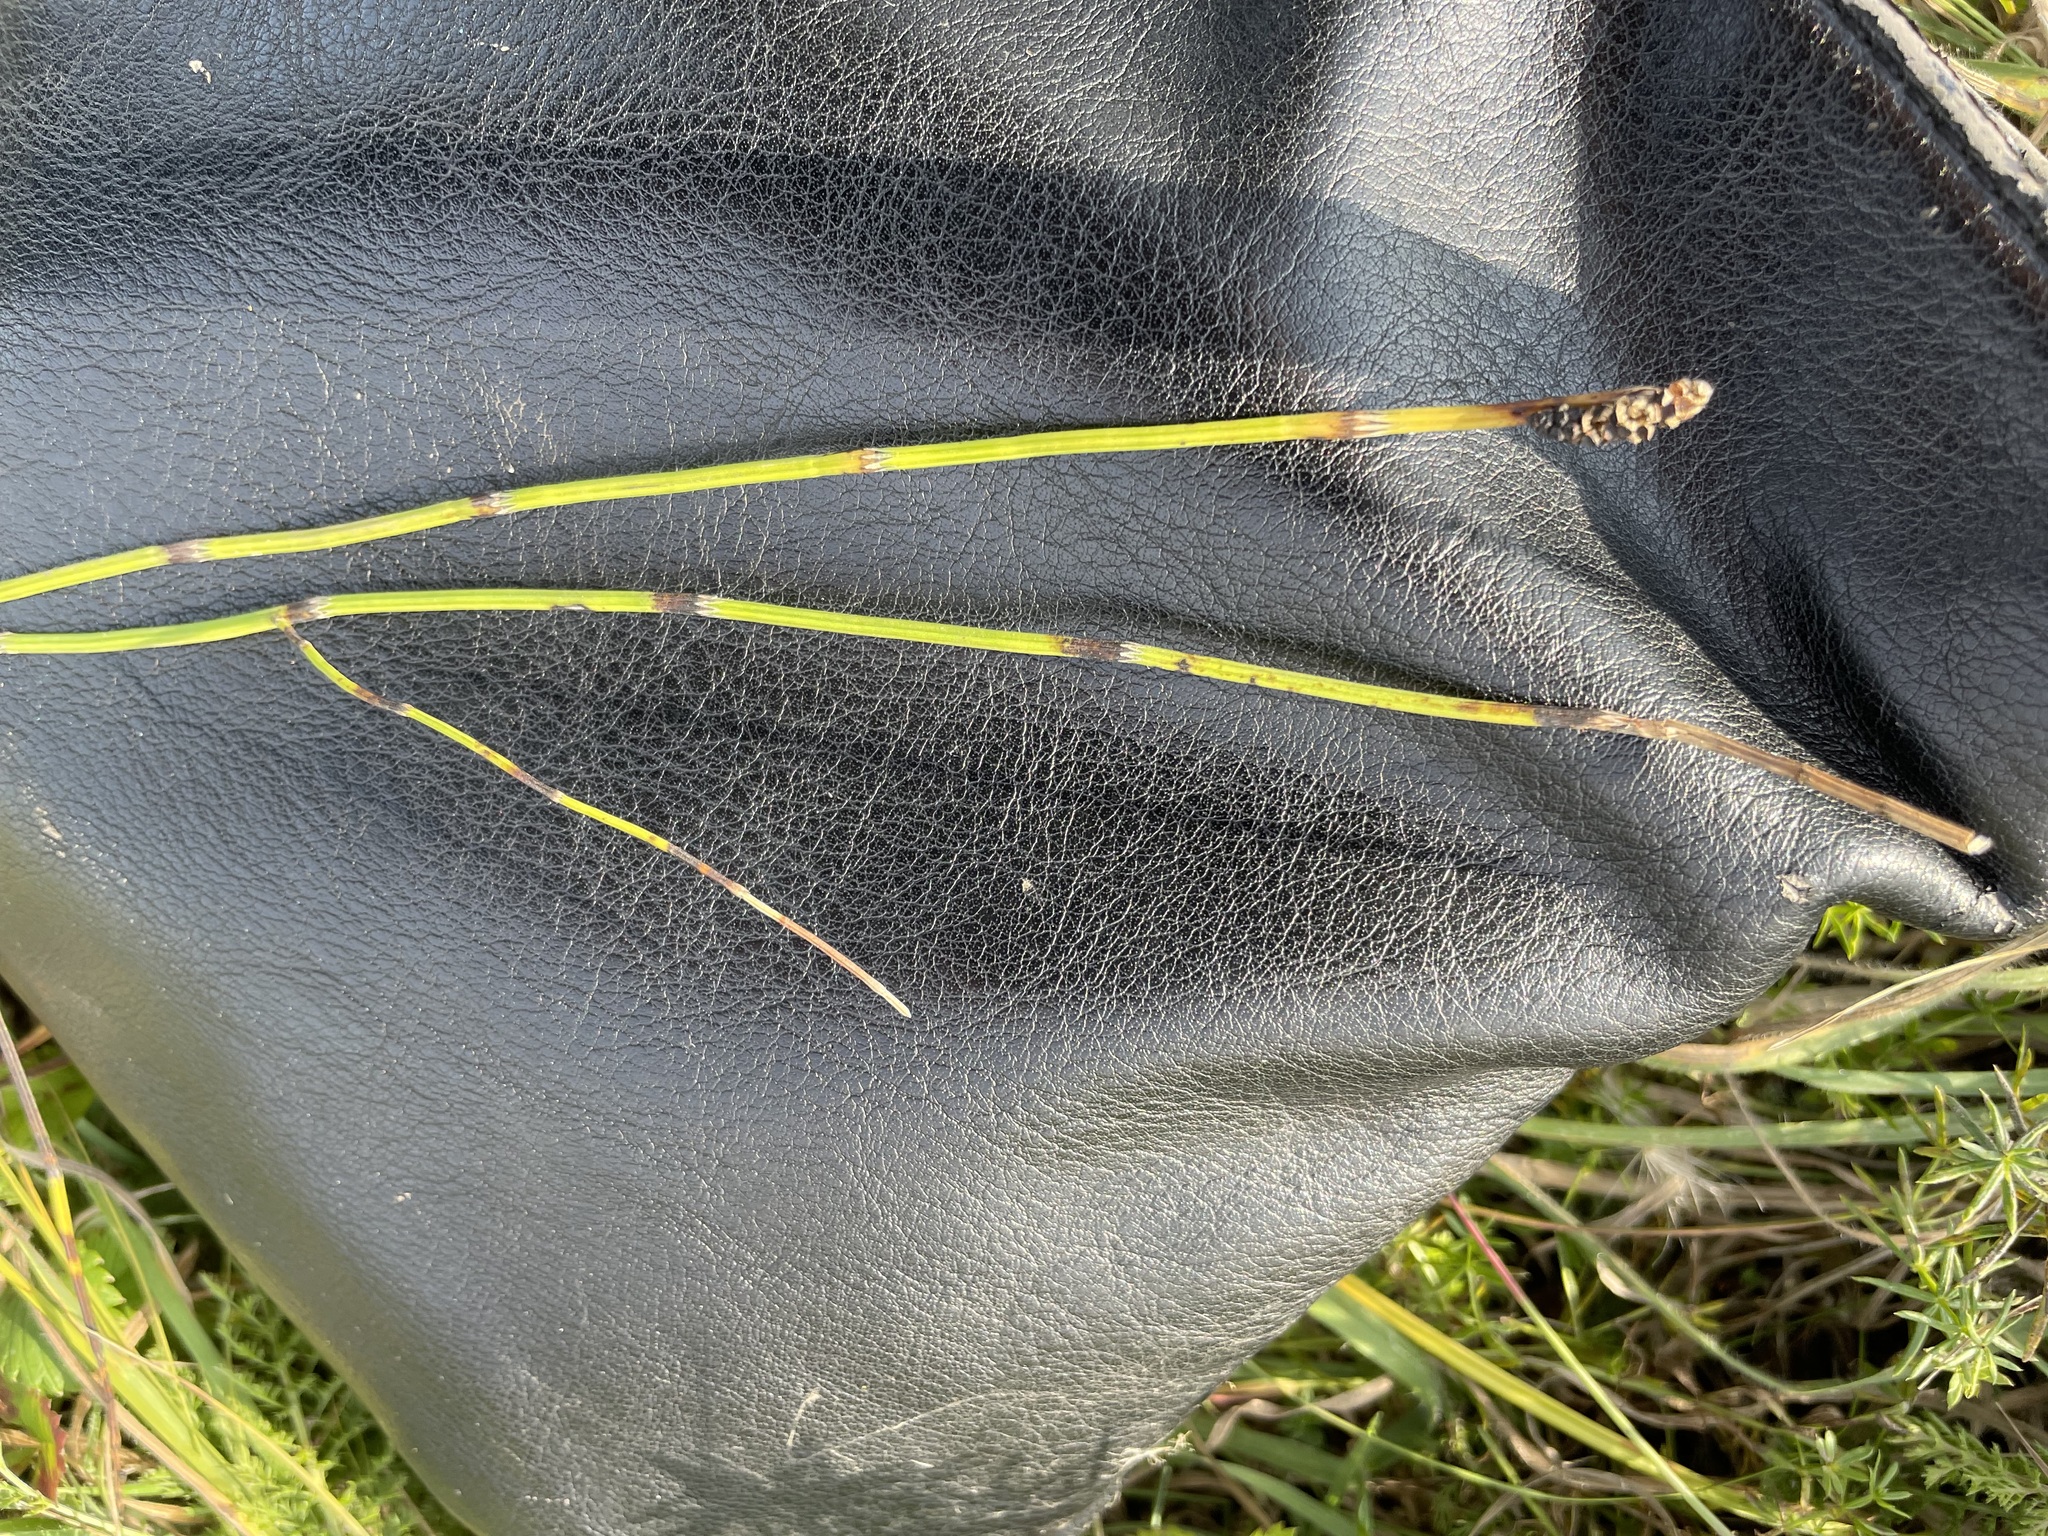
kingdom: Plantae
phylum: Tracheophyta
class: Polypodiopsida
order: Equisetales
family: Equisetaceae
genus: Equisetum
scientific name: Equisetum palustre
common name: Marsh horsetail
